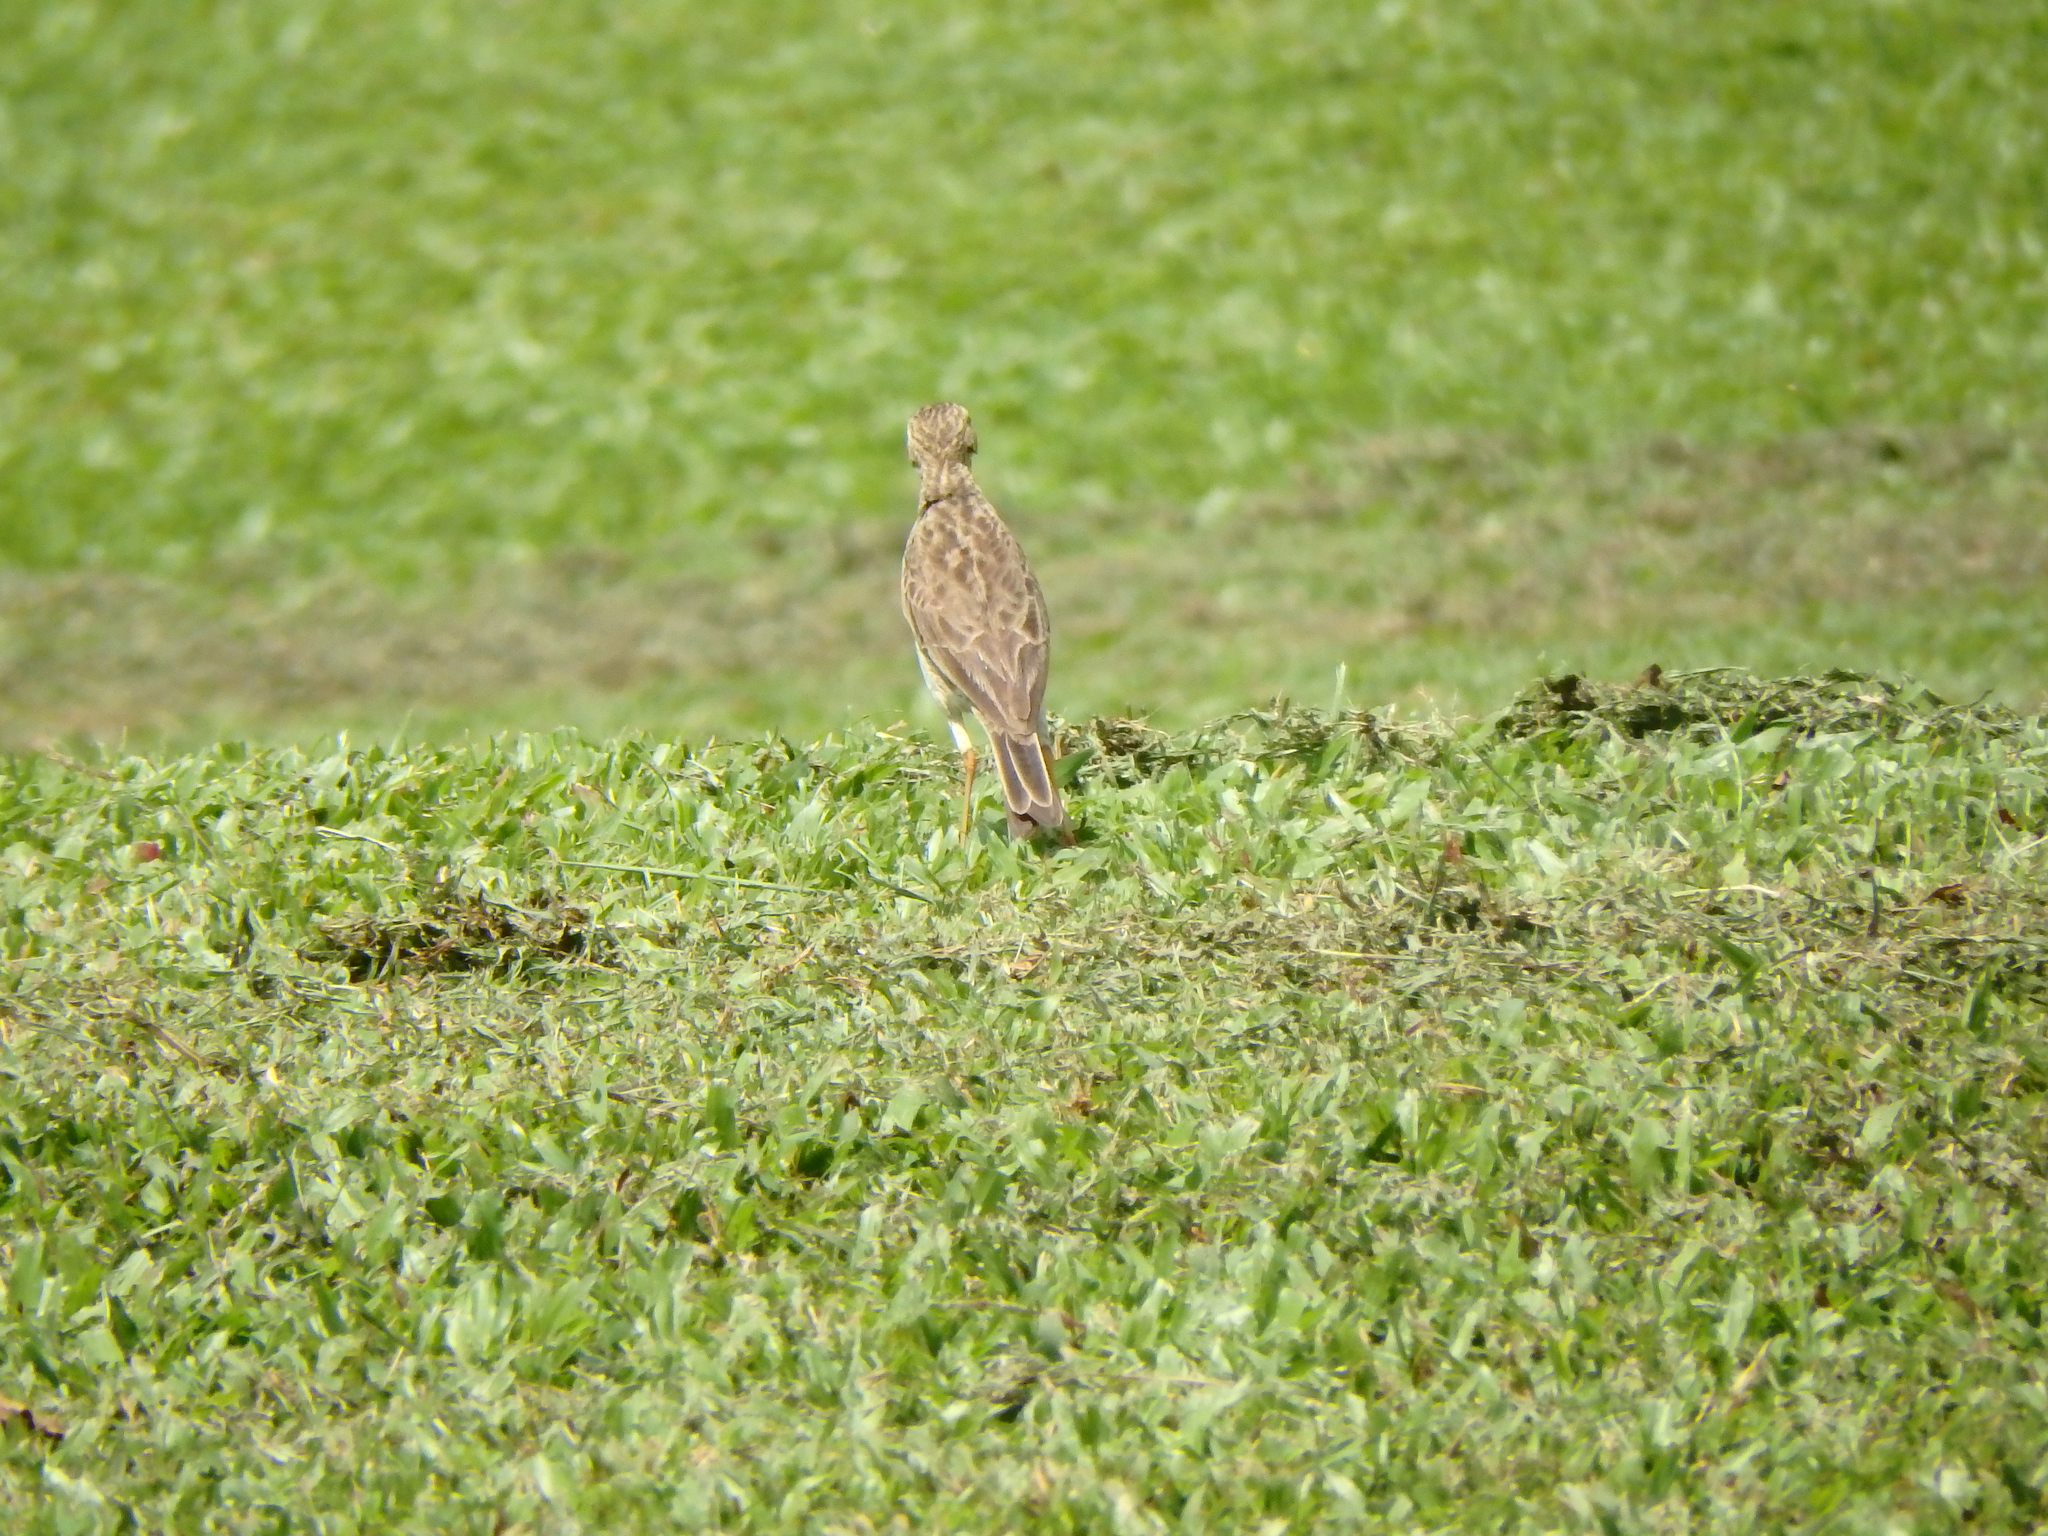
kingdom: Animalia
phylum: Chordata
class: Aves
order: Passeriformes
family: Motacillidae
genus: Anthus
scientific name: Anthus rufulus
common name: Paddyfield pipit
